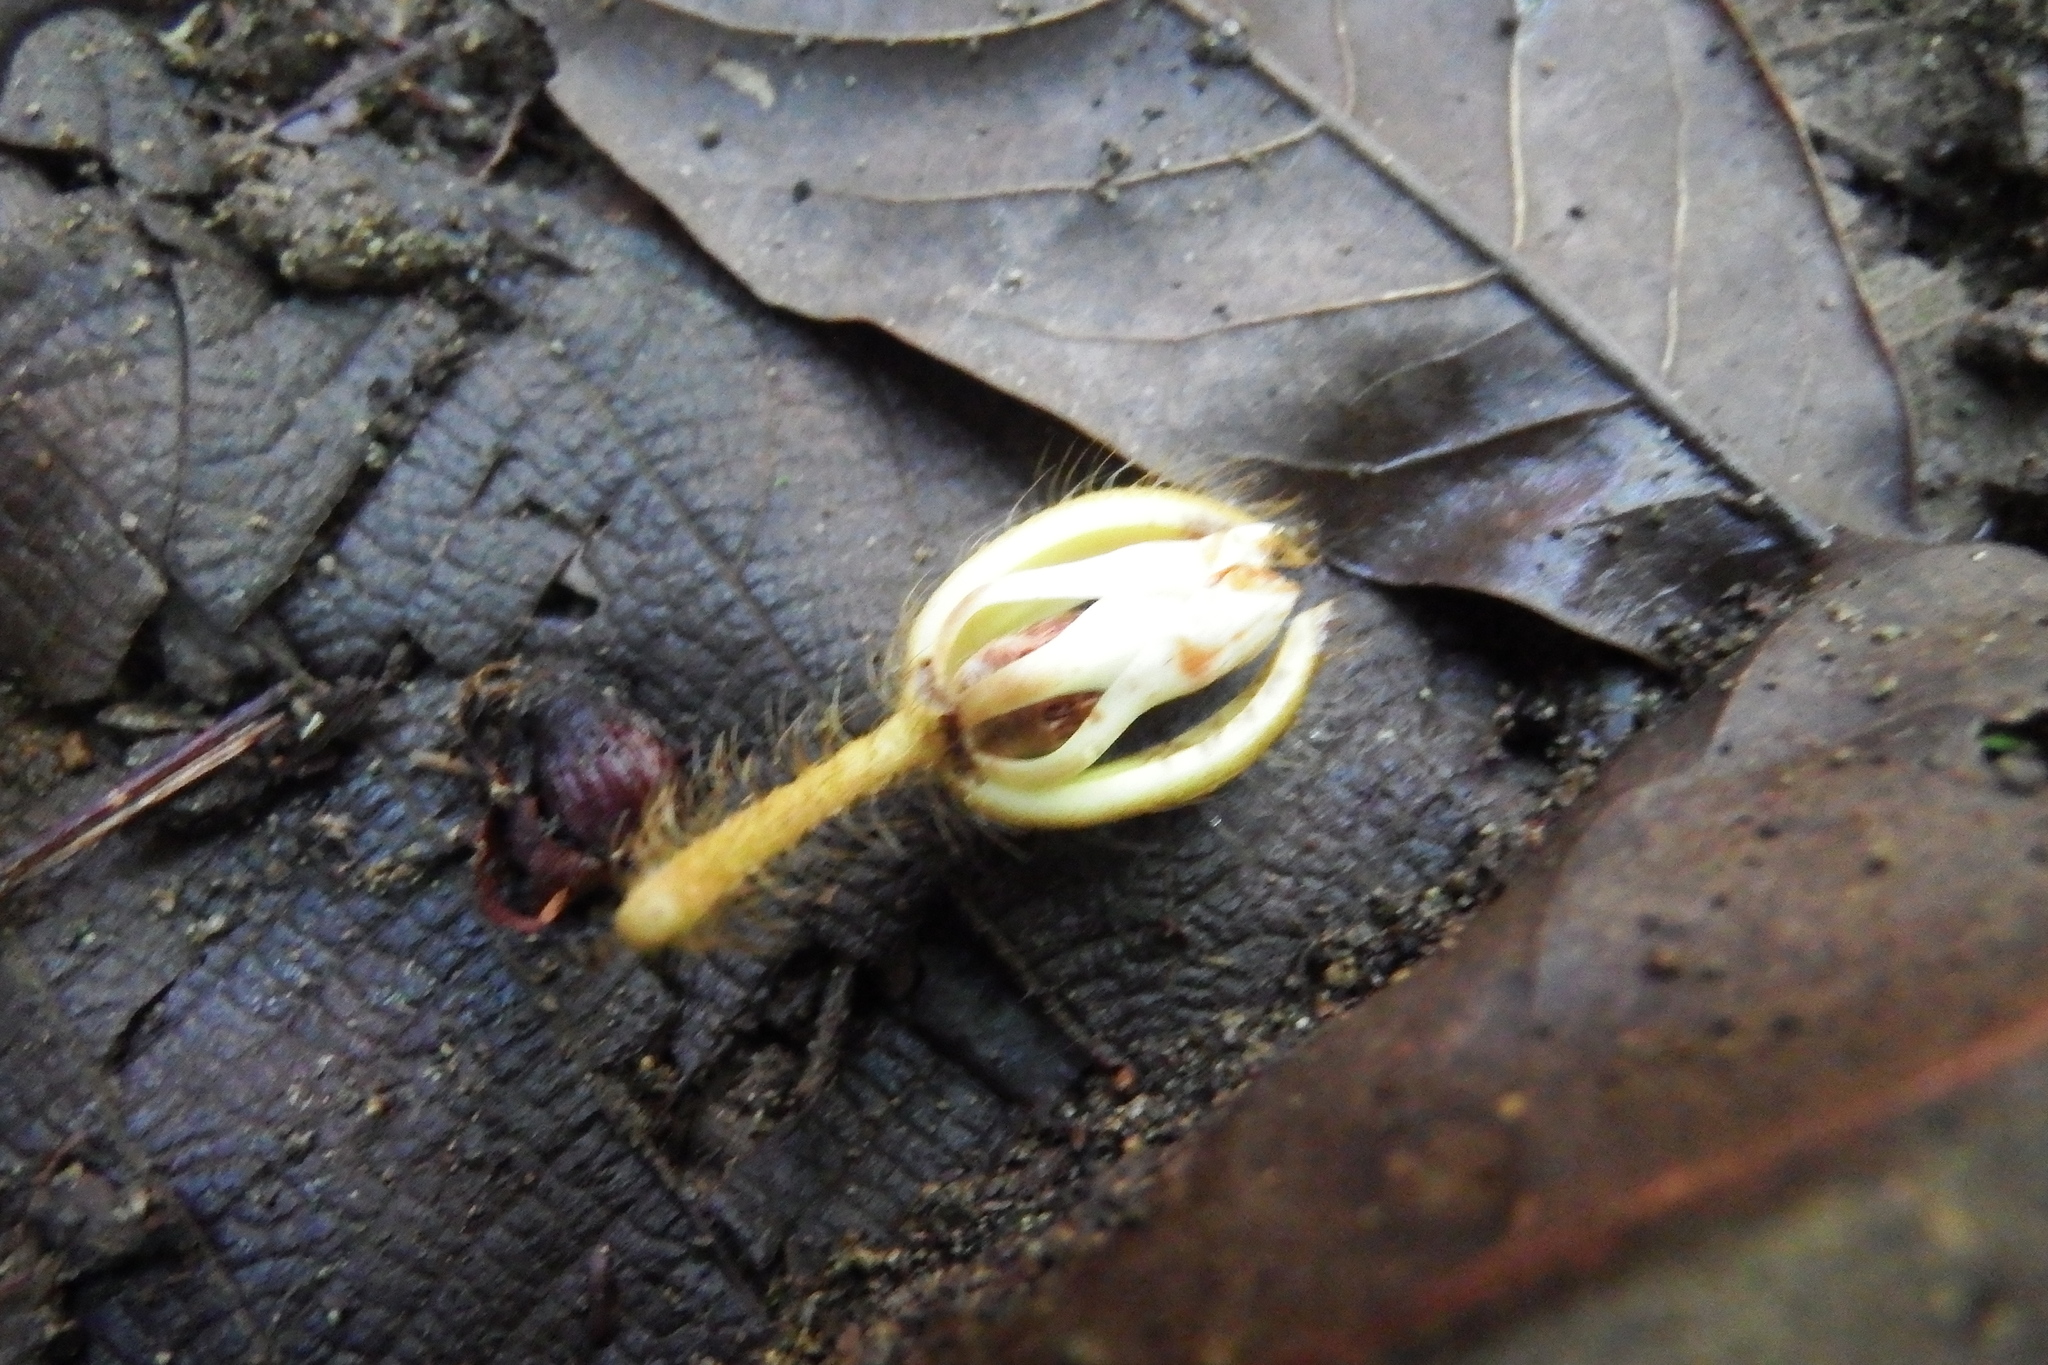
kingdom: Plantae
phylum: Tracheophyta
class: Magnoliopsida
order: Malvales
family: Malvaceae
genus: Apeiba
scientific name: Apeiba tibourbou
